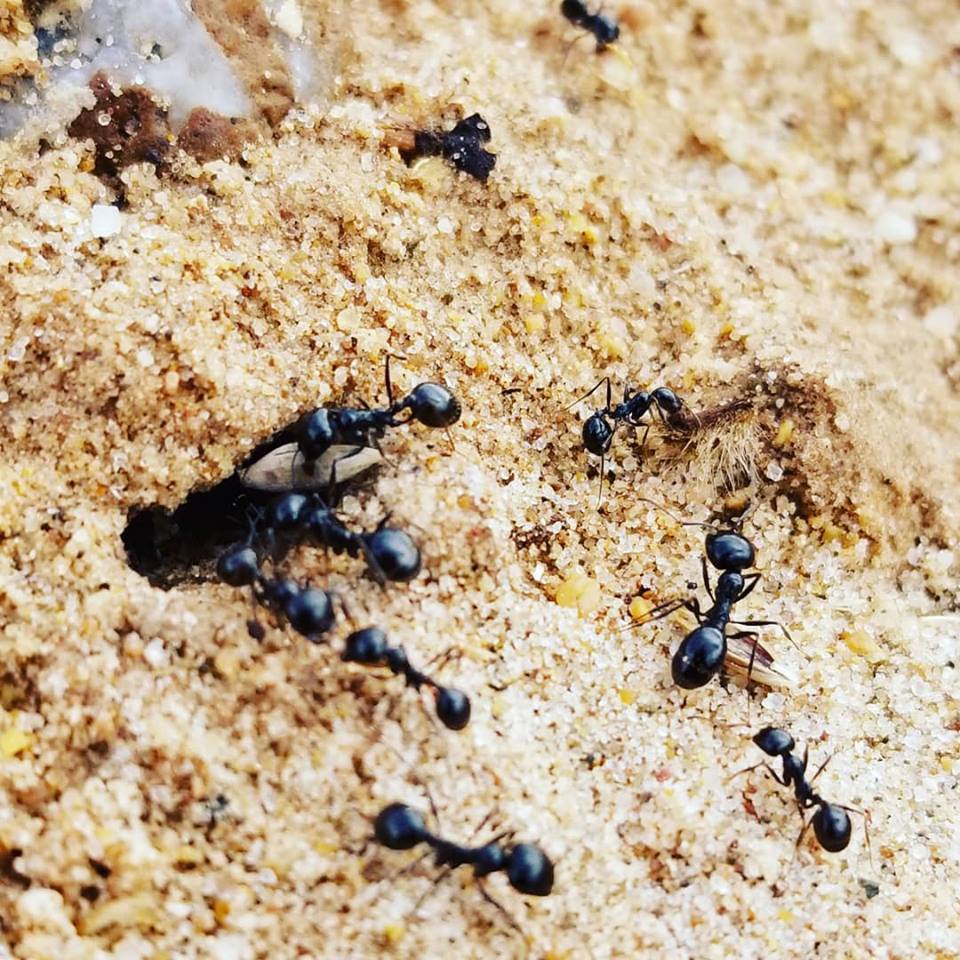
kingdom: Animalia
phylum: Arthropoda
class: Insecta
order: Hymenoptera
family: Formicidae
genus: Messor
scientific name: Messor pergandei
